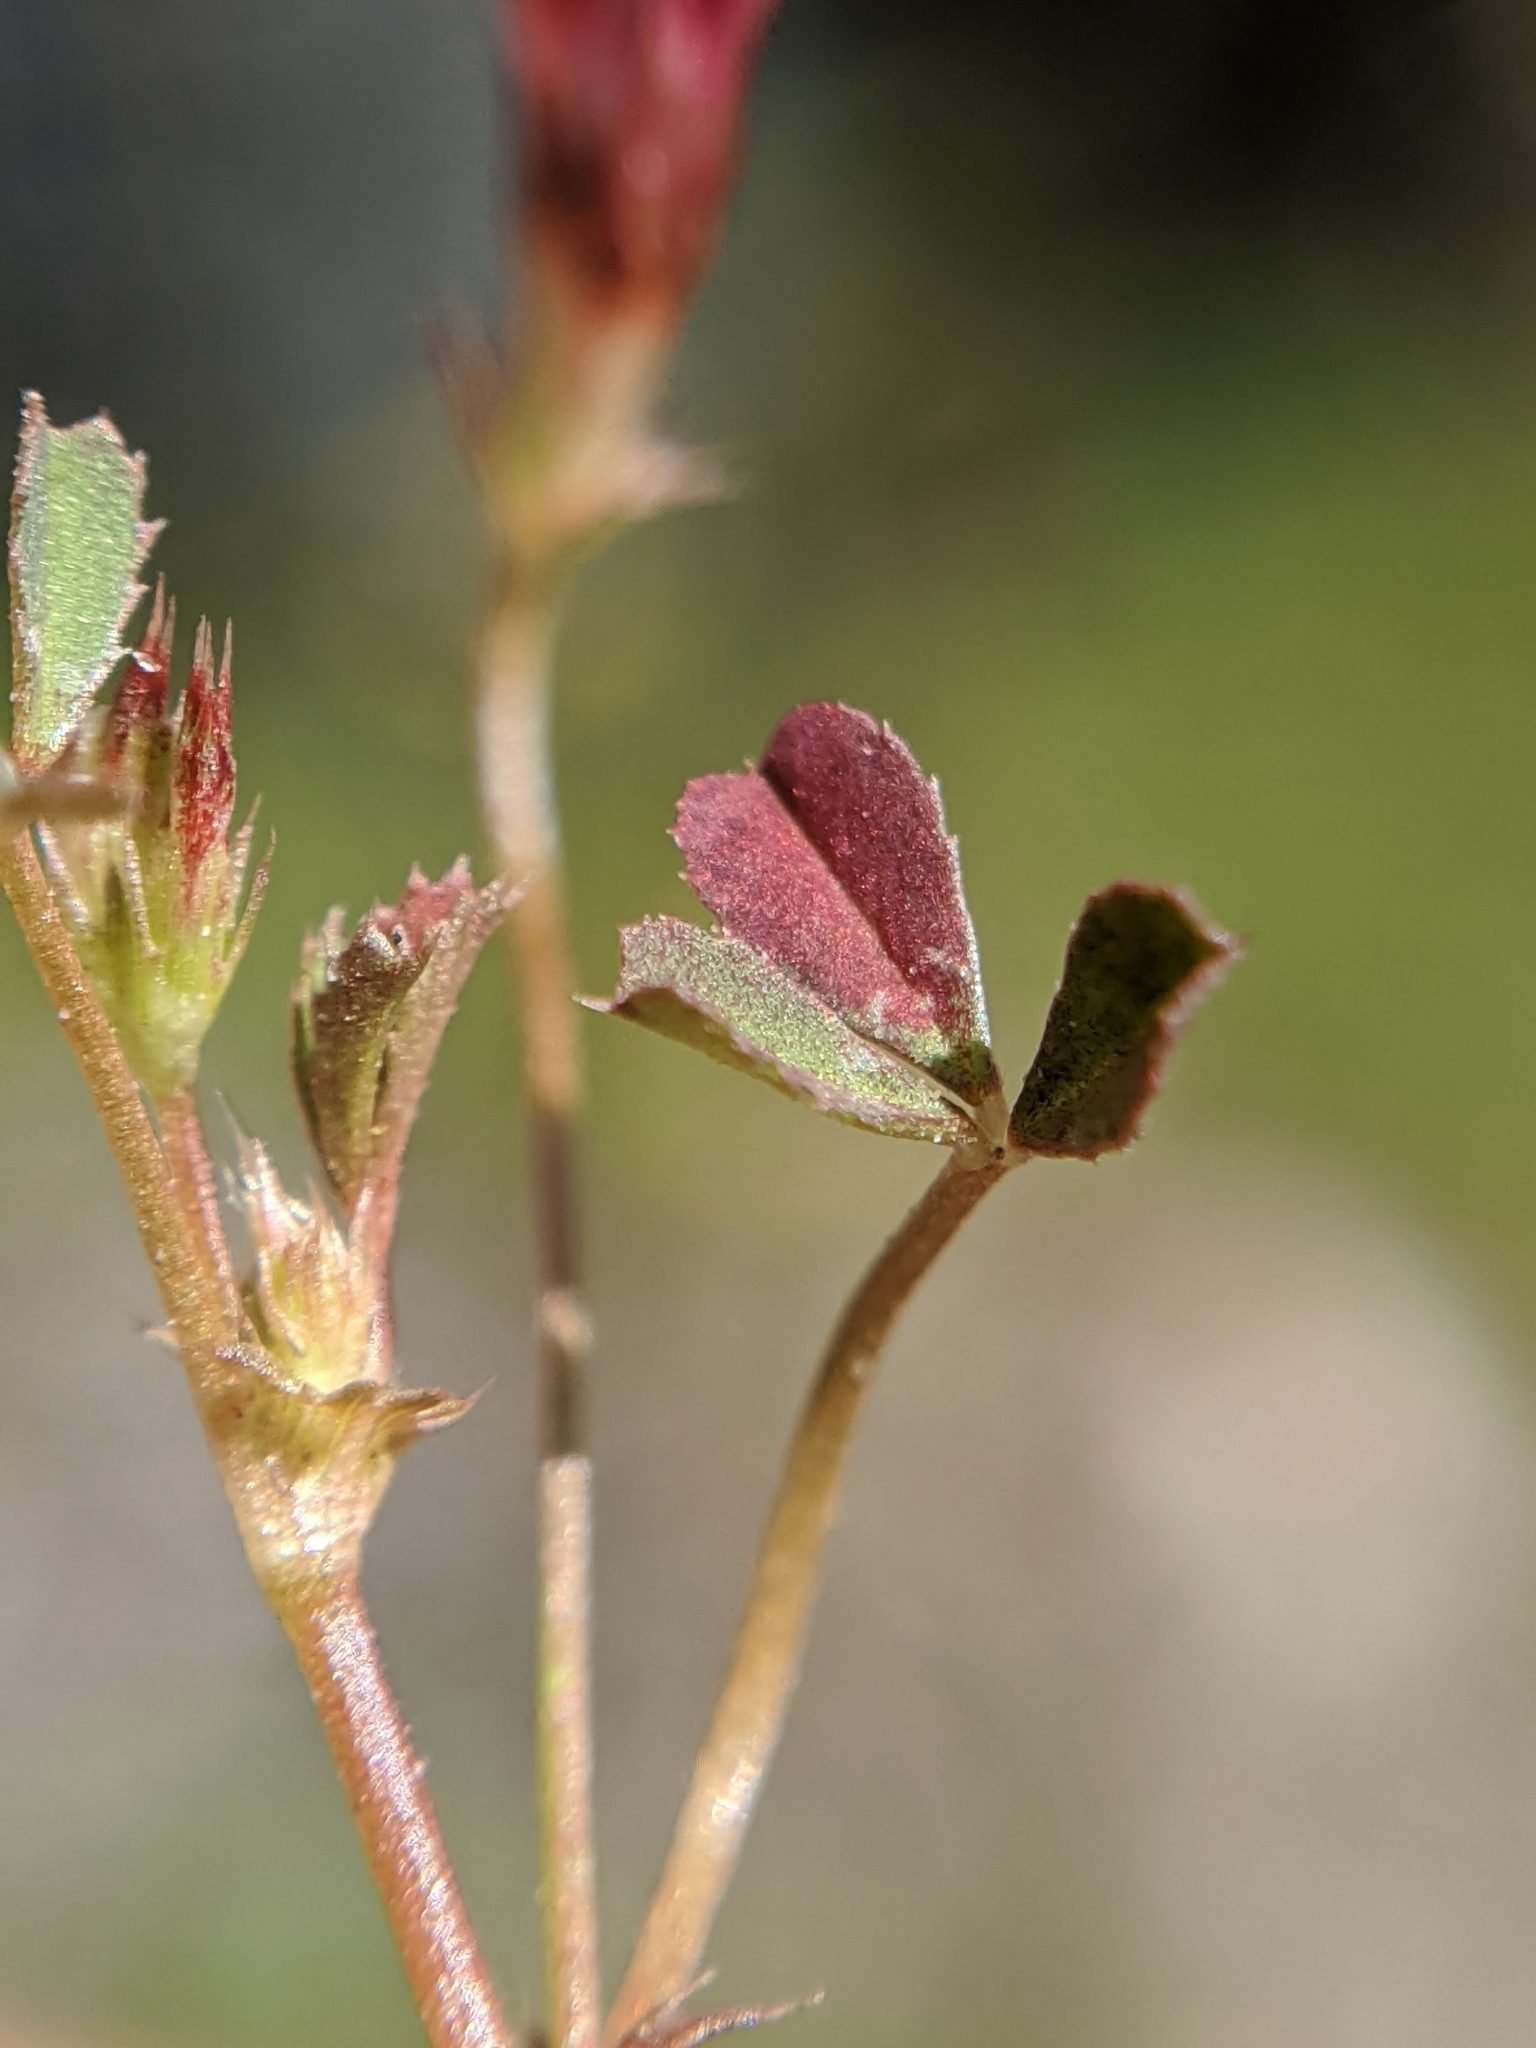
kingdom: Plantae
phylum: Tracheophyta
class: Magnoliopsida
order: Fabales
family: Fabaceae
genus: Trifolium
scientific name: Trifolium variegatum
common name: Whitetip clover
